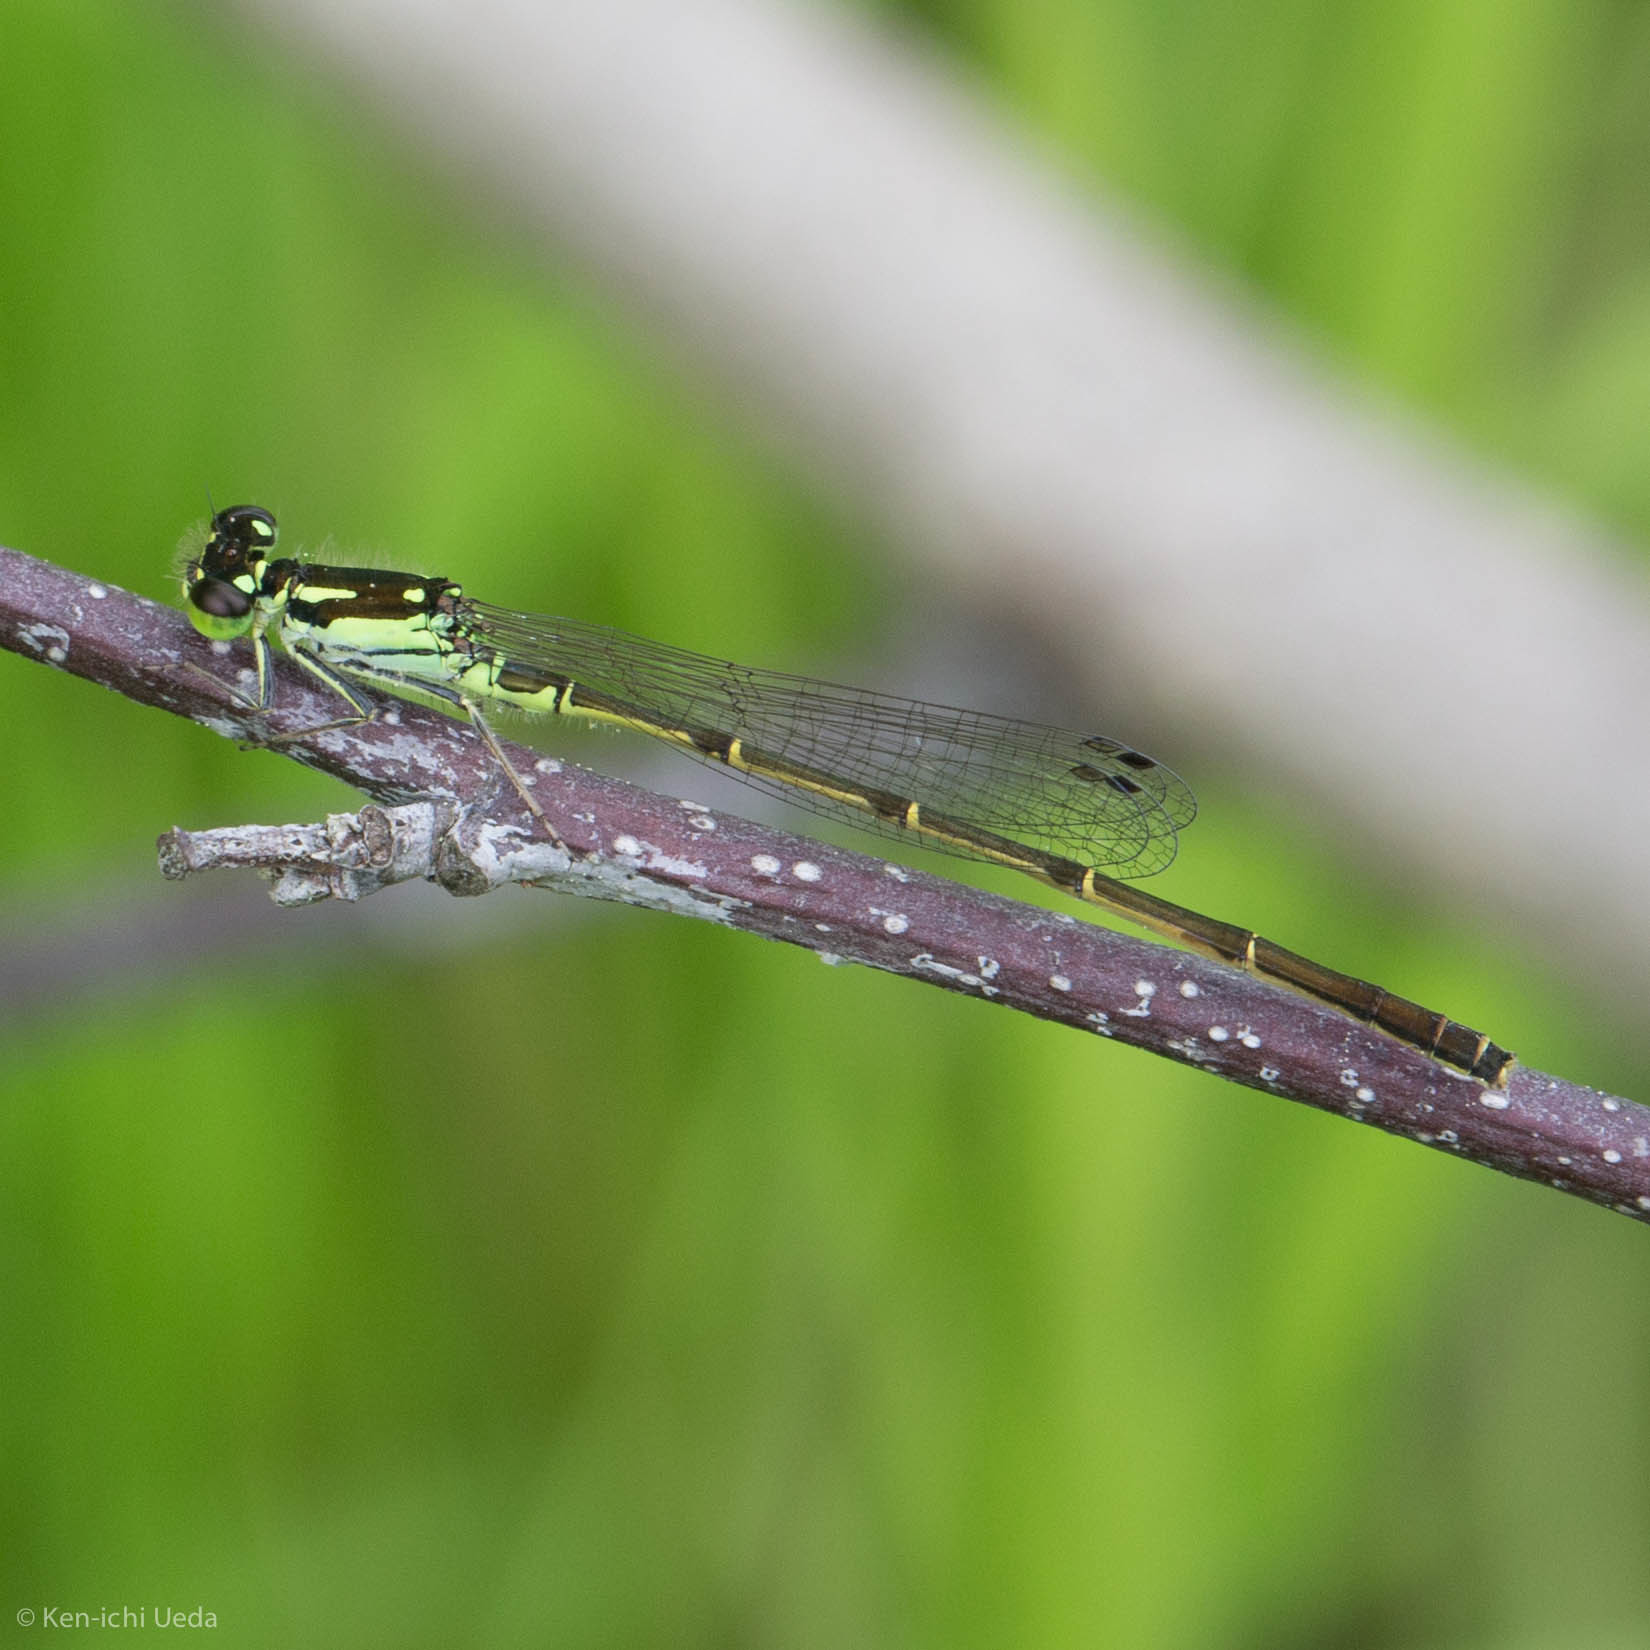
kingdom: Animalia
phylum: Arthropoda
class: Insecta
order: Odonata
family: Coenagrionidae
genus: Ischnura
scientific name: Ischnura posita
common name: Fragile forktail
